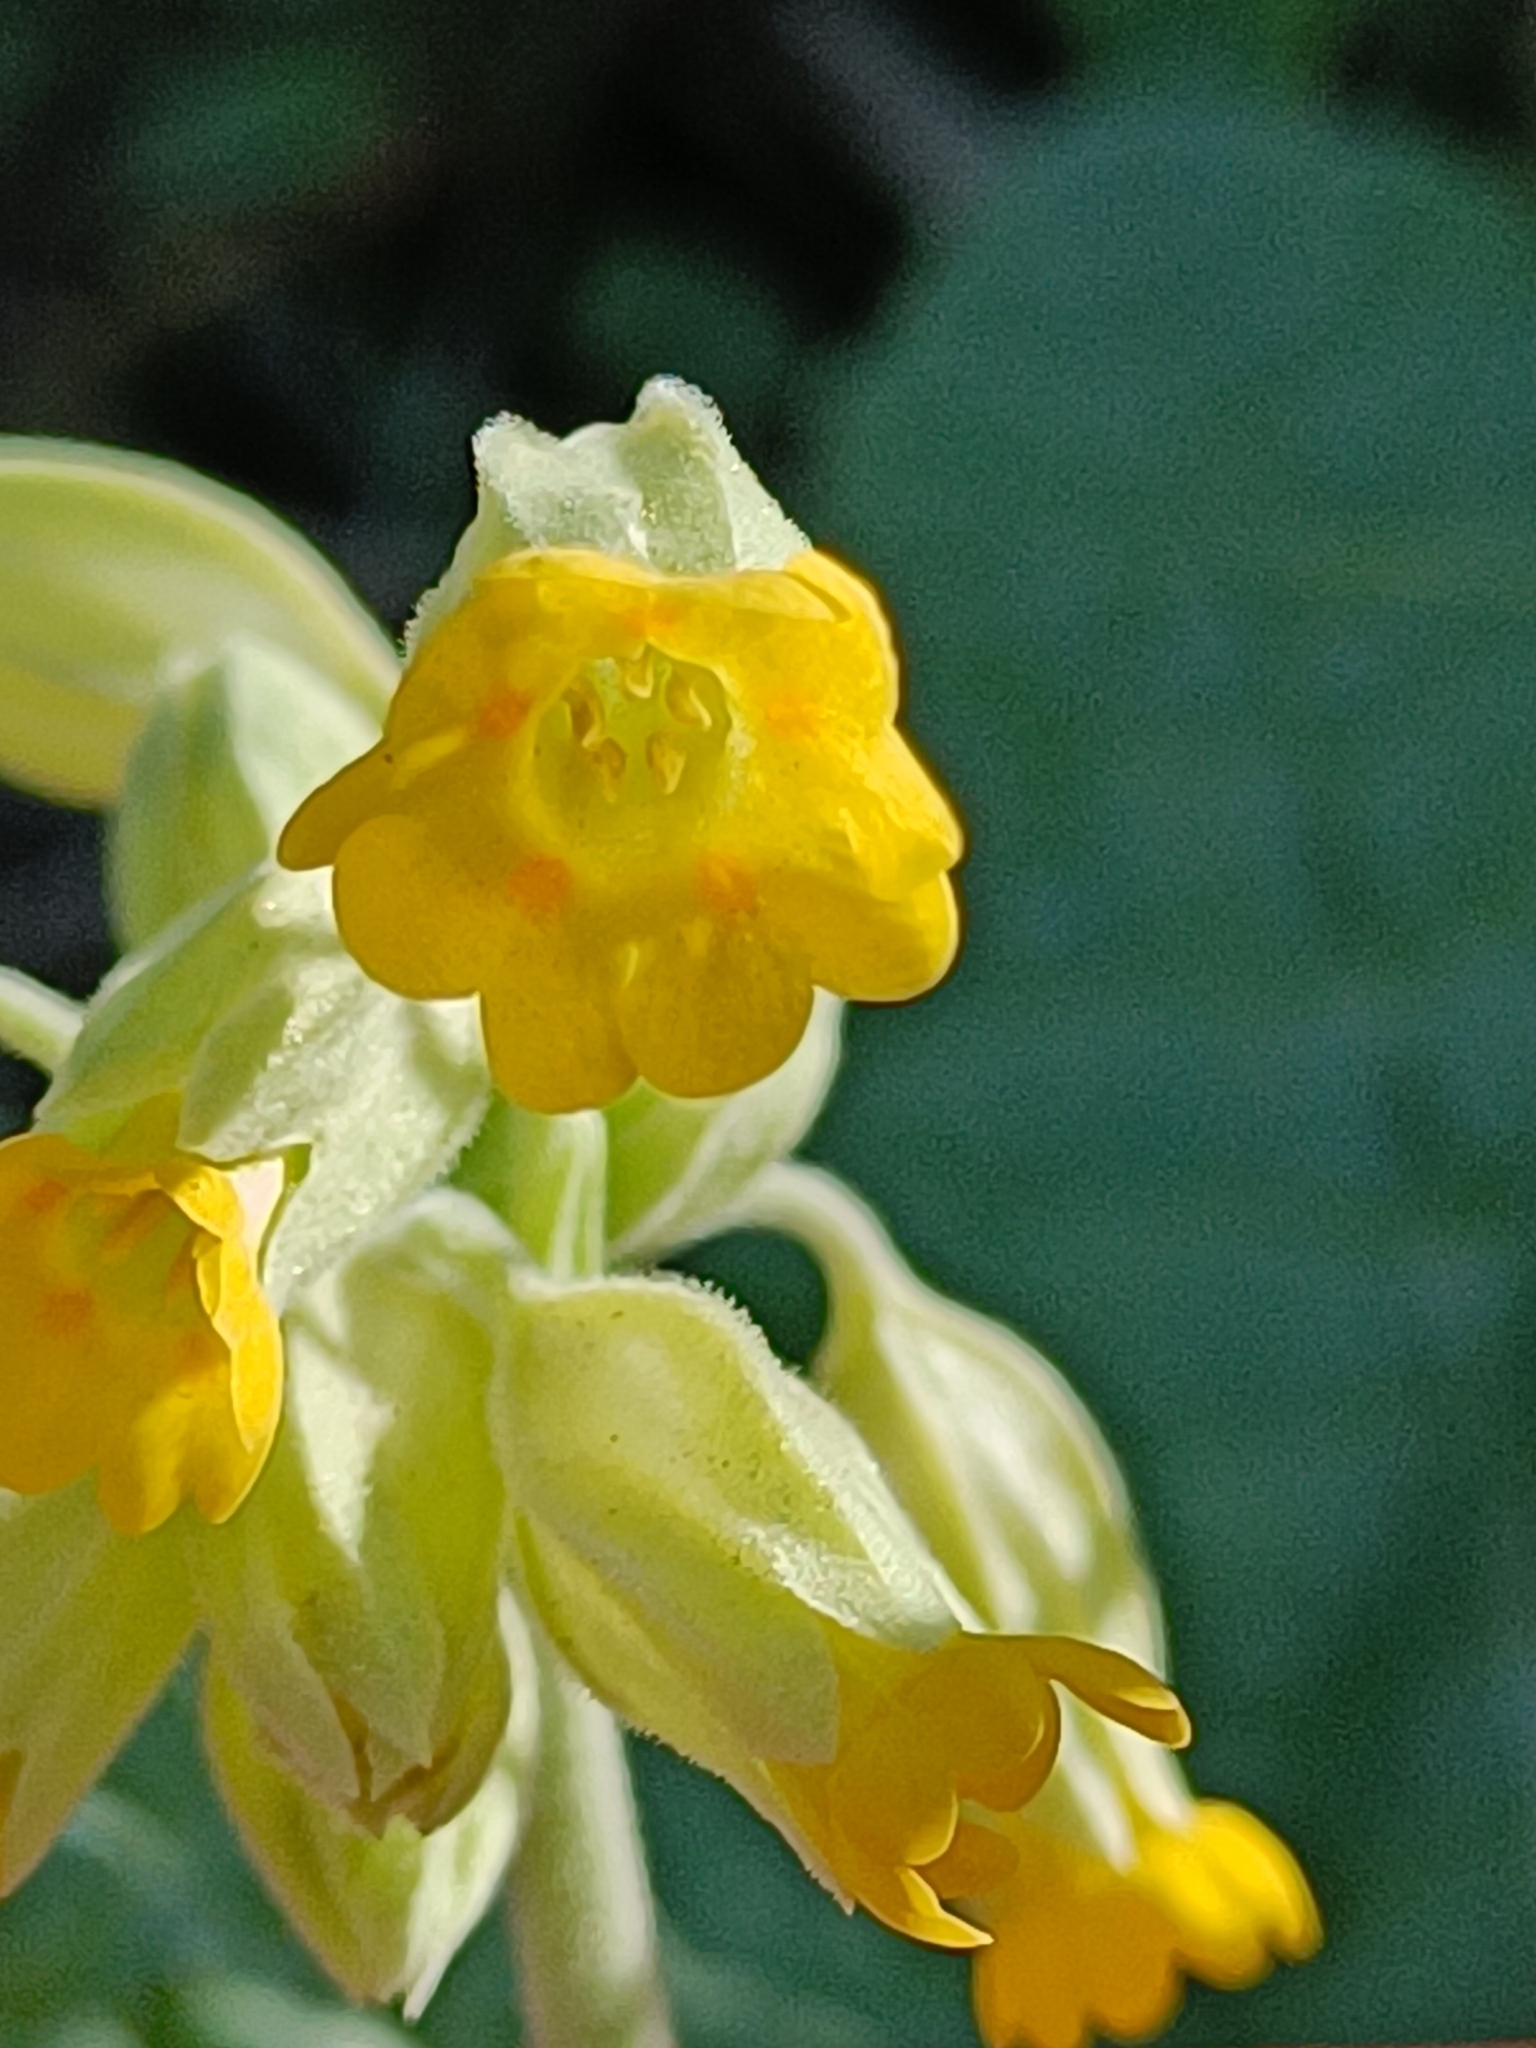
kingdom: Plantae
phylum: Tracheophyta
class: Magnoliopsida
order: Ericales
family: Primulaceae
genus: Primula
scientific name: Primula veris
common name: Cowslip
